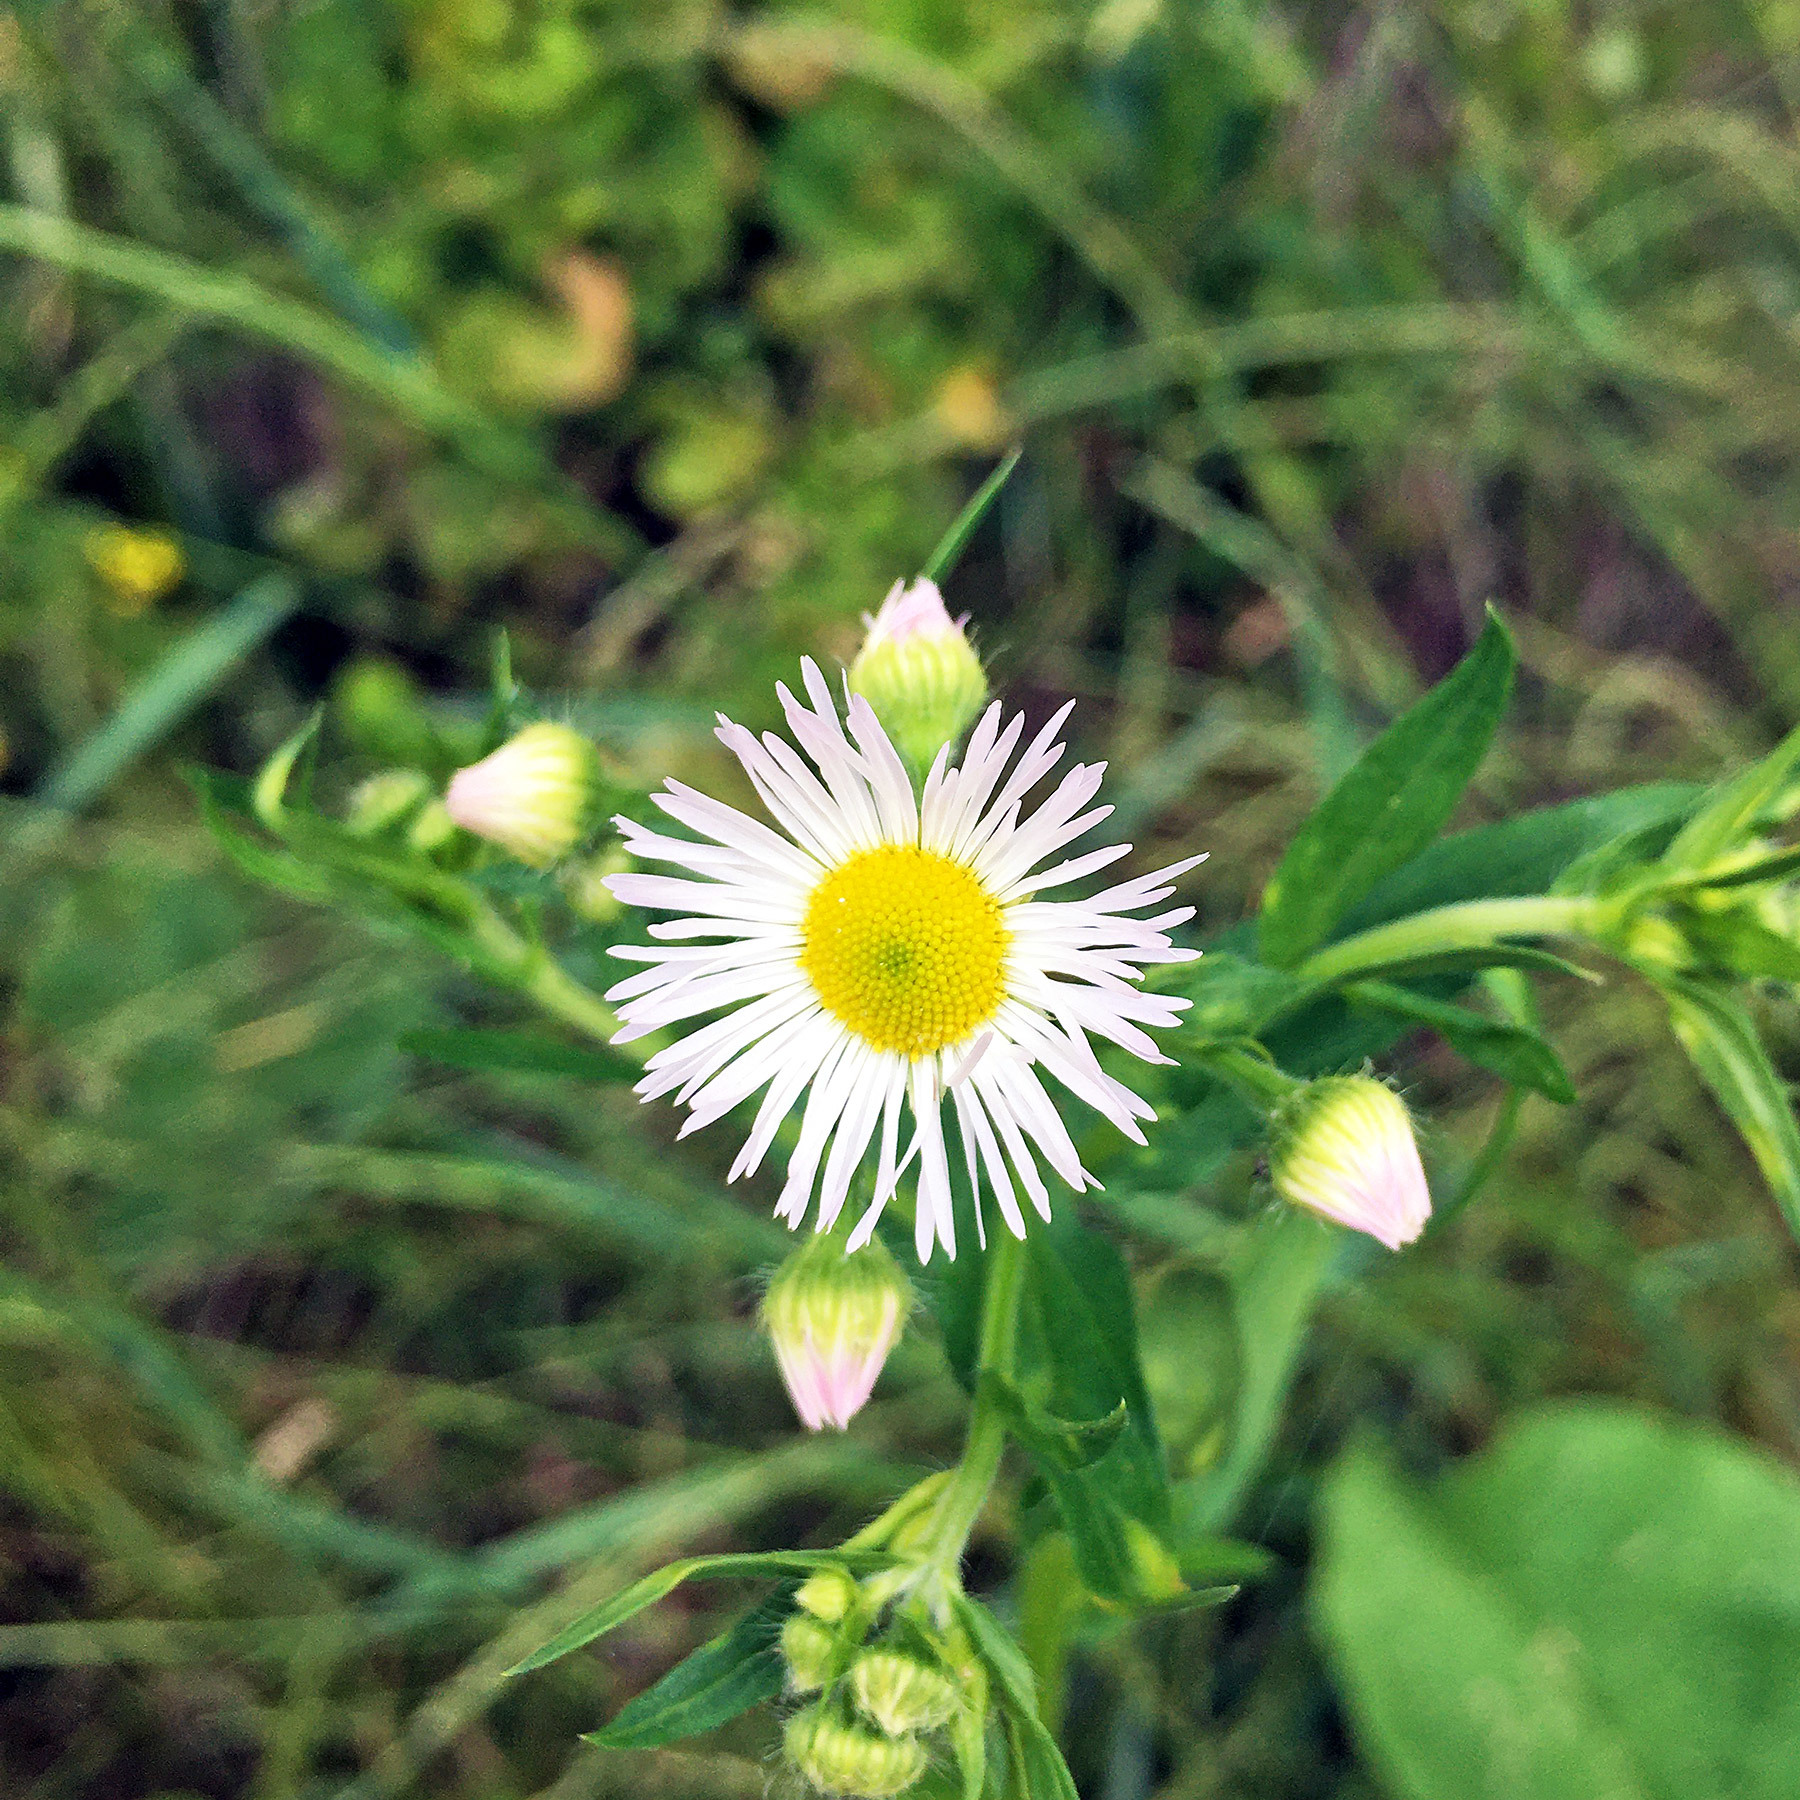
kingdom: Plantae
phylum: Tracheophyta
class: Magnoliopsida
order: Asterales
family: Asteraceae
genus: Erigeron
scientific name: Erigeron annuus
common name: Tall fleabane
